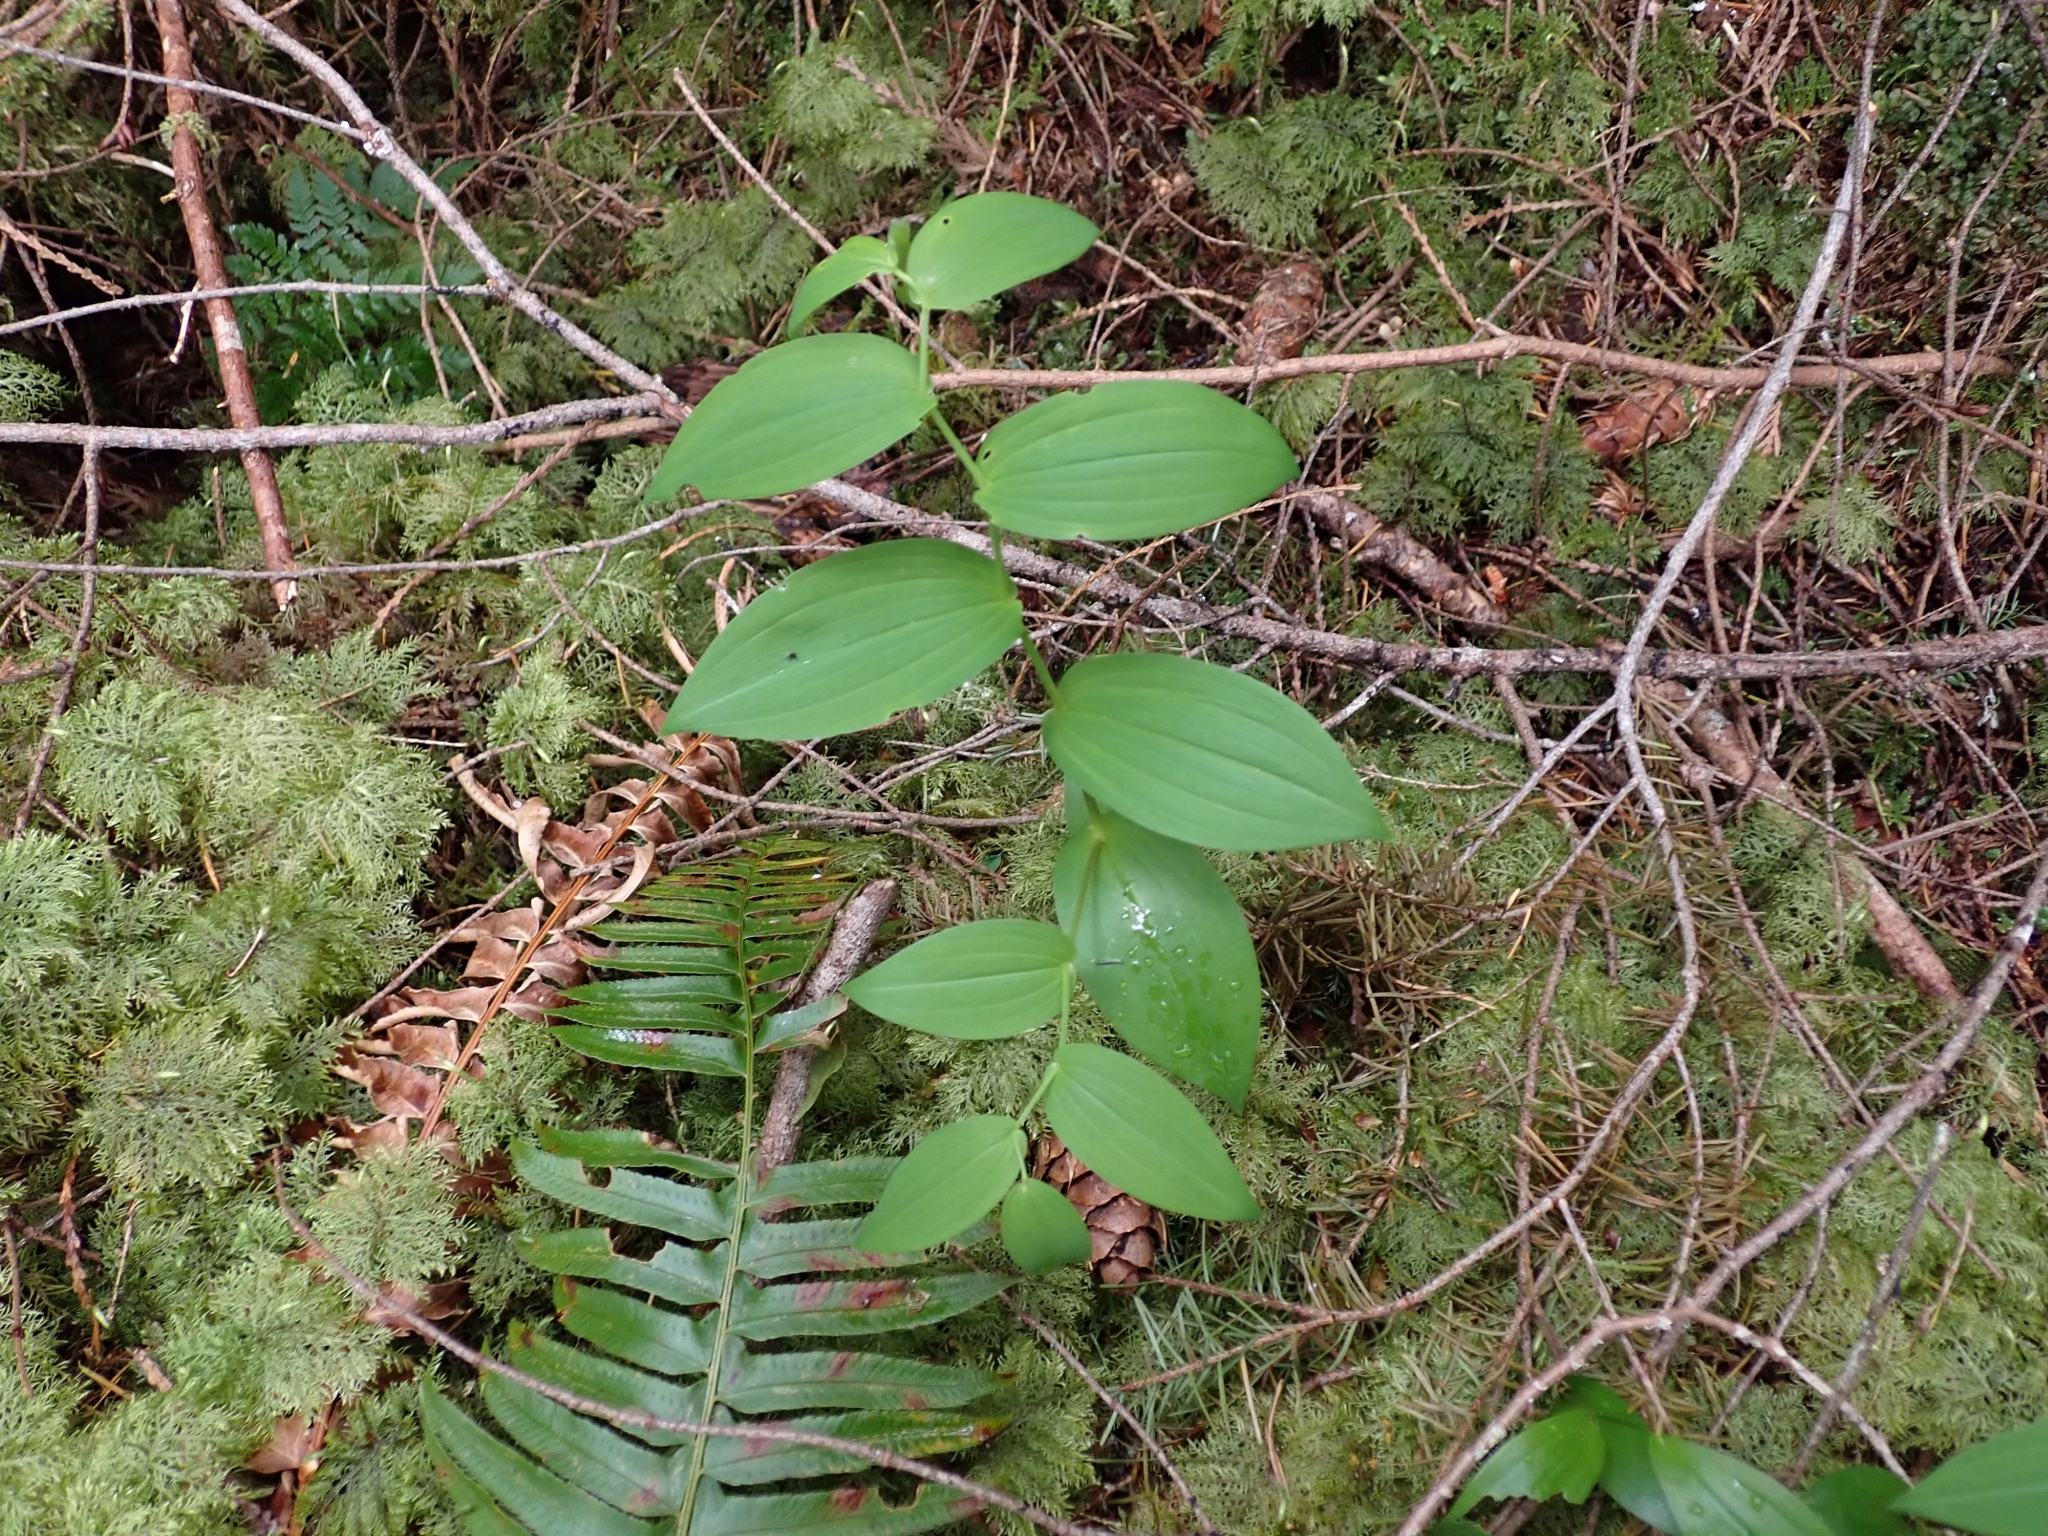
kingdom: Plantae
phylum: Tracheophyta
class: Liliopsida
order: Liliales
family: Liliaceae
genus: Streptopus
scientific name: Streptopus amplexifolius
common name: Clasp twisted stalk
